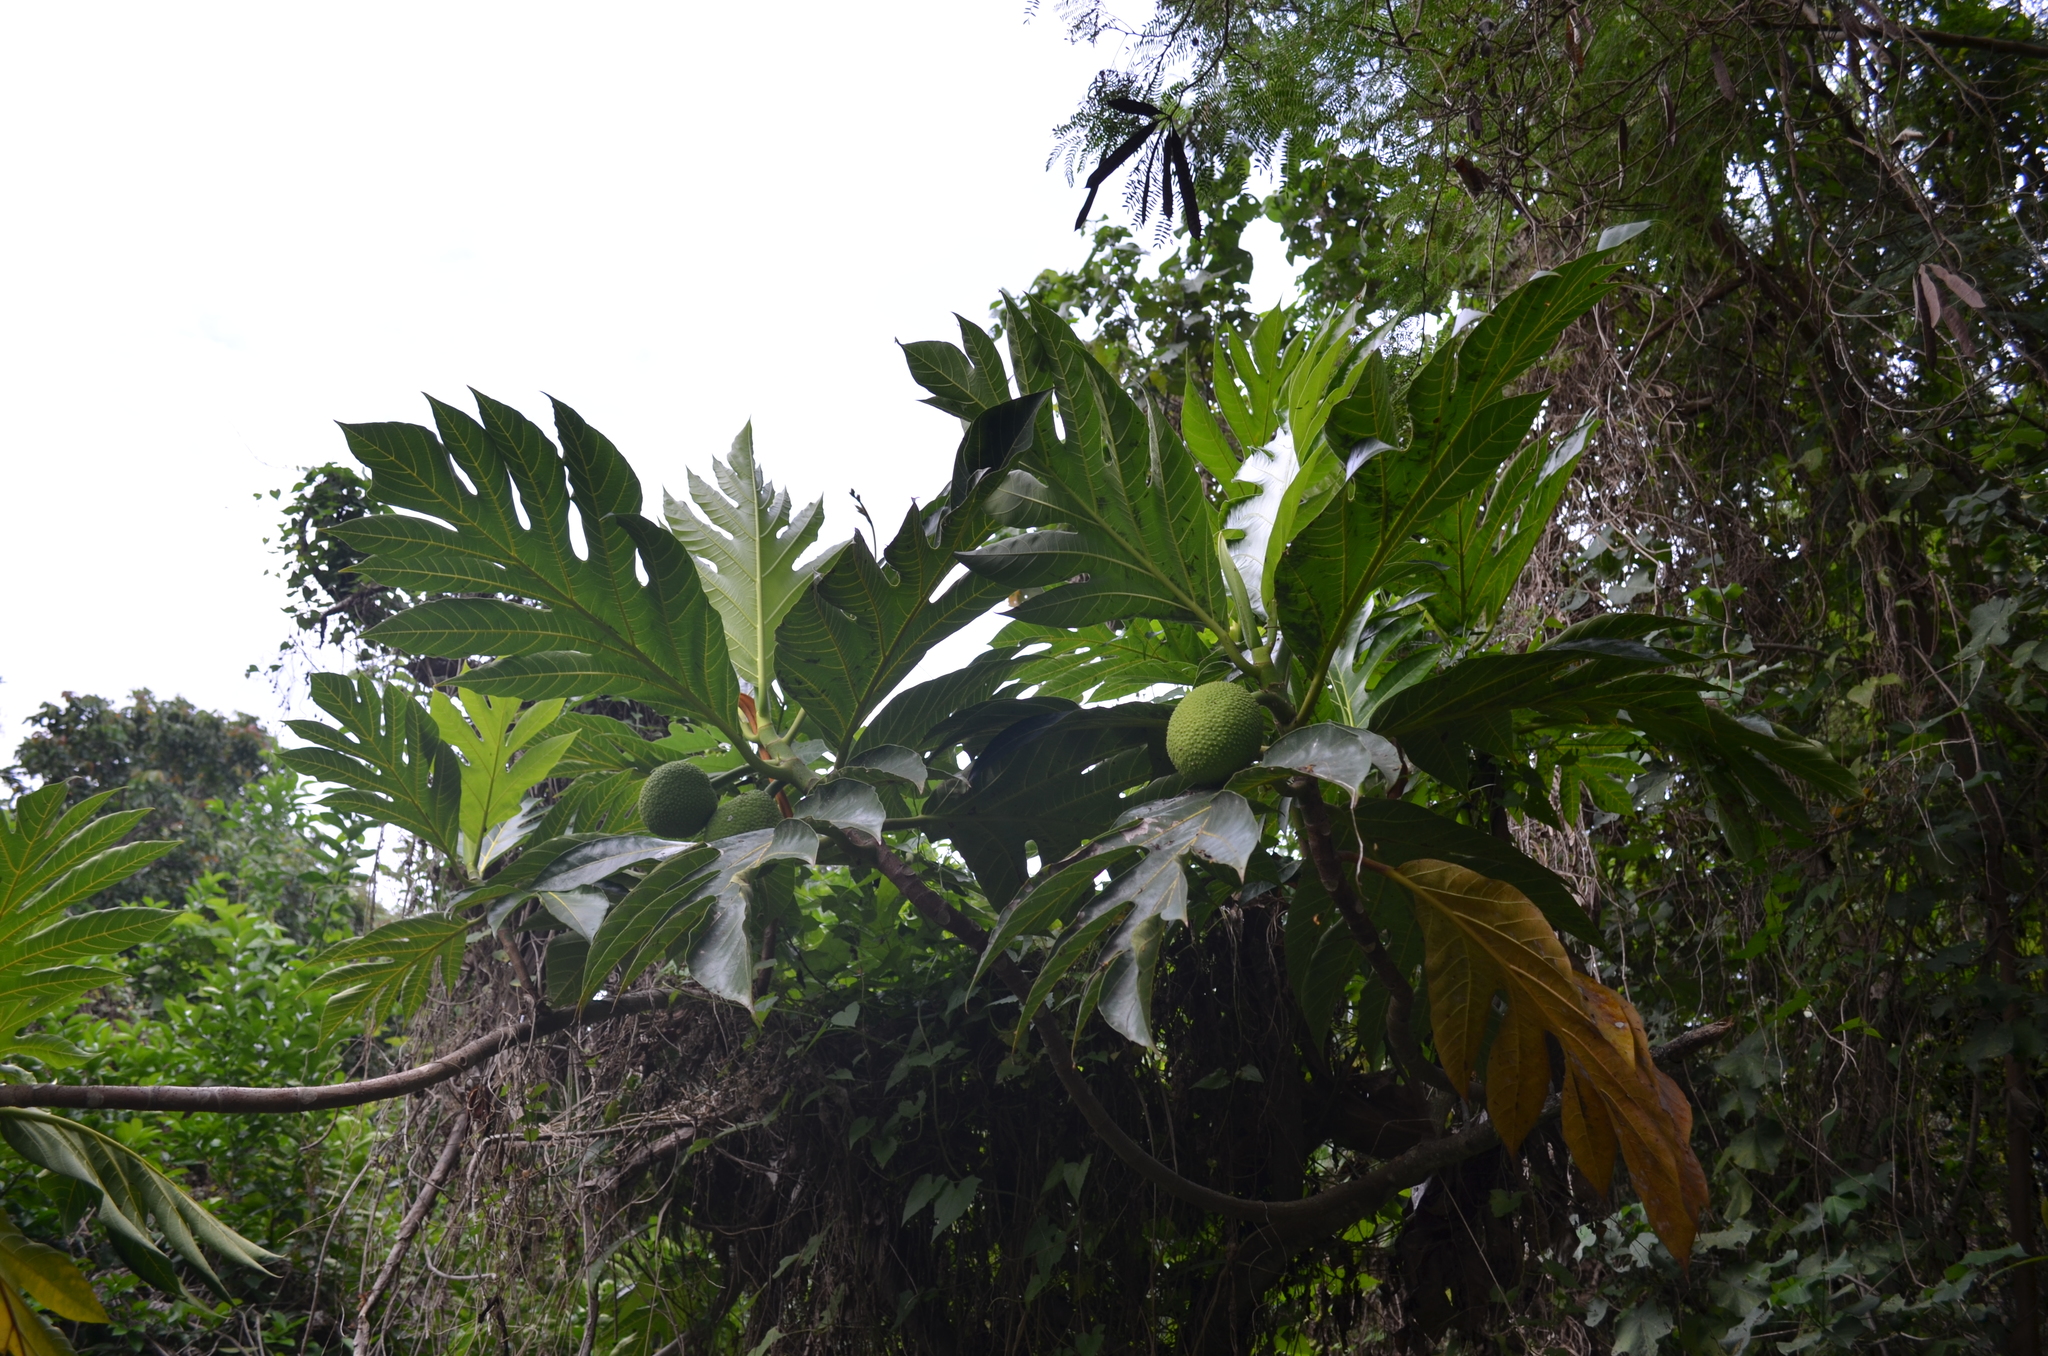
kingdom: Plantae
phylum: Tracheophyta
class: Magnoliopsida
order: Rosales
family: Moraceae
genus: Artocarpus
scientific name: Artocarpus altilis
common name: Breadfruit
